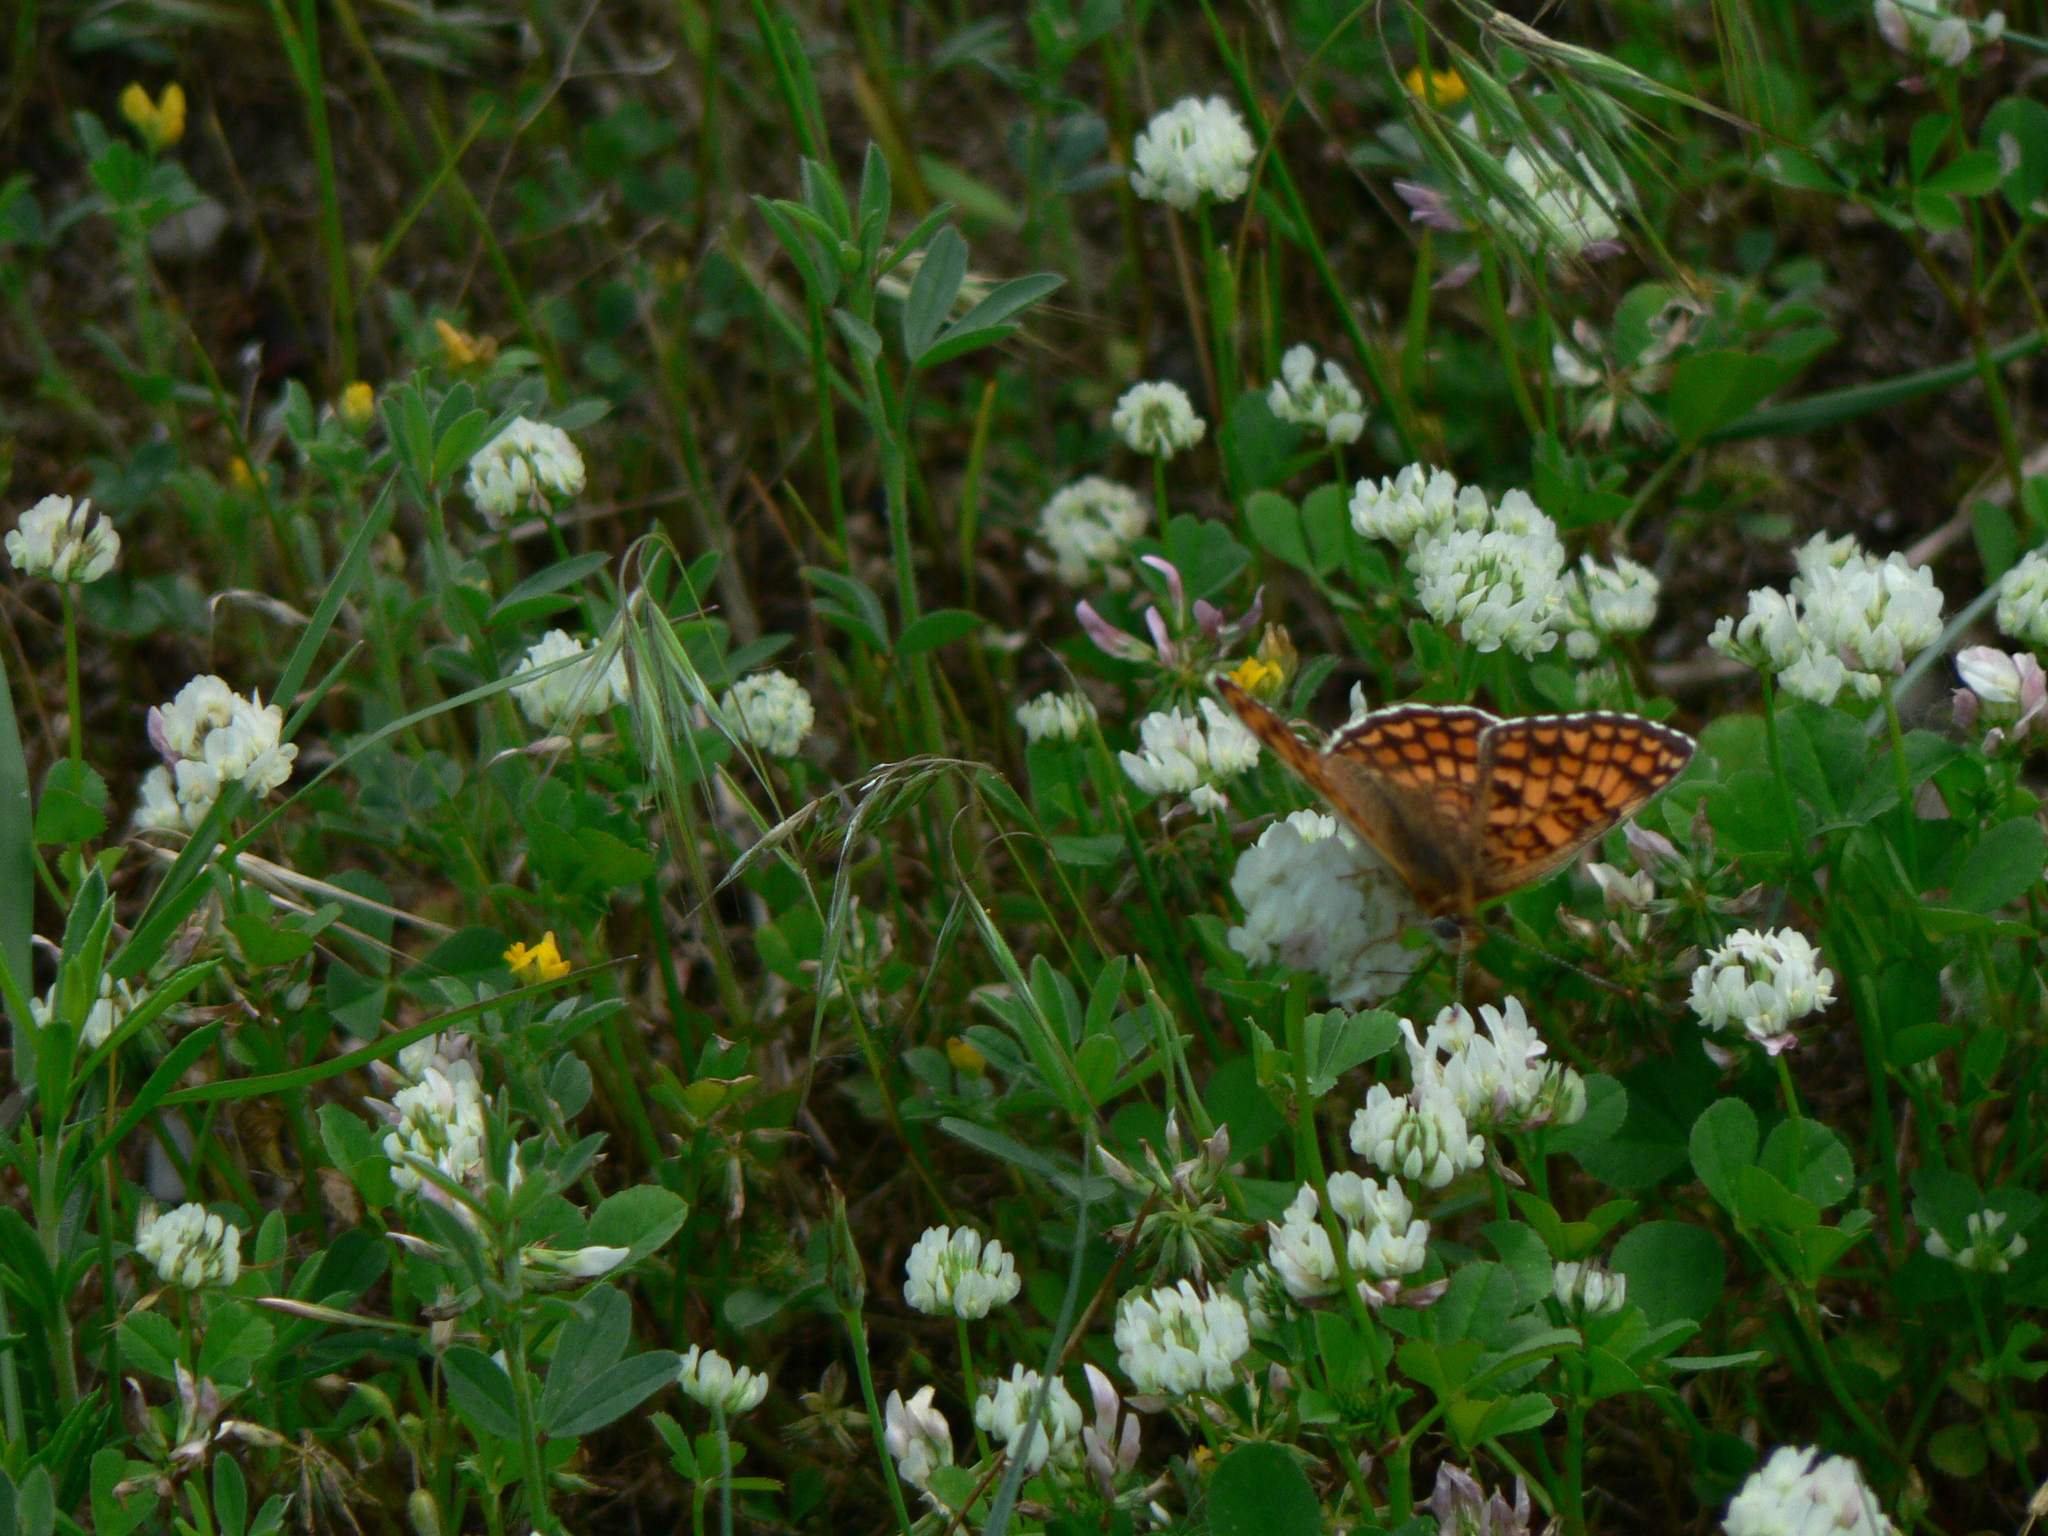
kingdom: Animalia
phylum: Arthropoda
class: Insecta
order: Lepidoptera
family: Nymphalidae
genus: Melitaea
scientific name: Melitaea phoebe
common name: Knapweed fritillary
